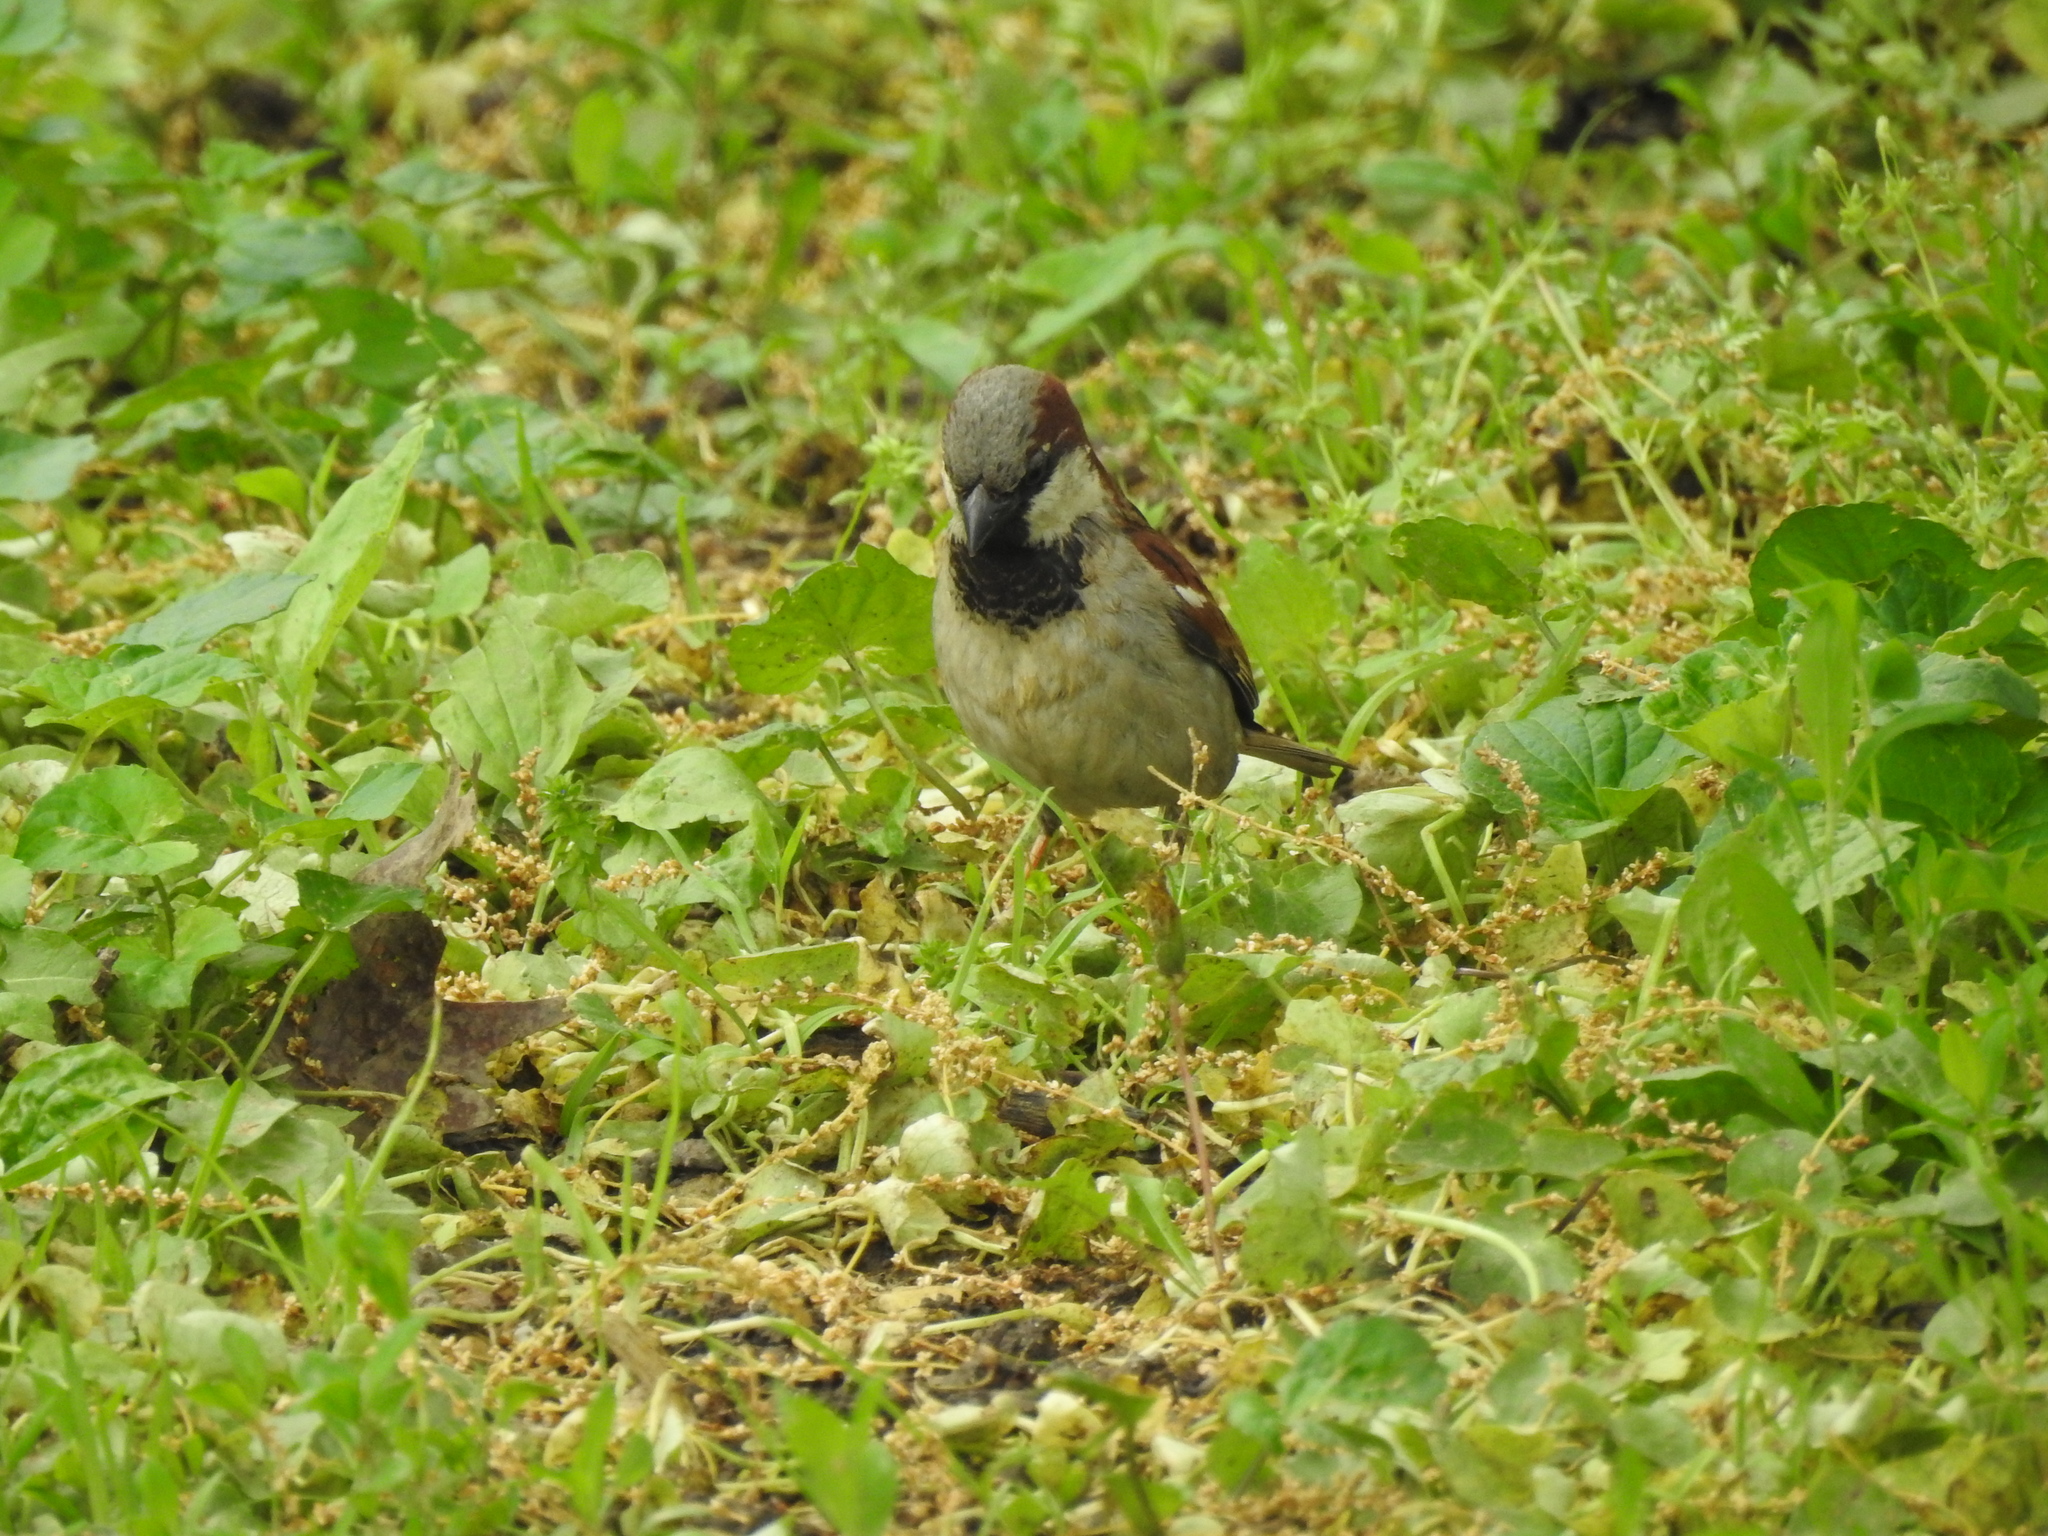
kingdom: Animalia
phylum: Chordata
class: Aves
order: Passeriformes
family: Passeridae
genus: Passer
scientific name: Passer domesticus
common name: House sparrow
